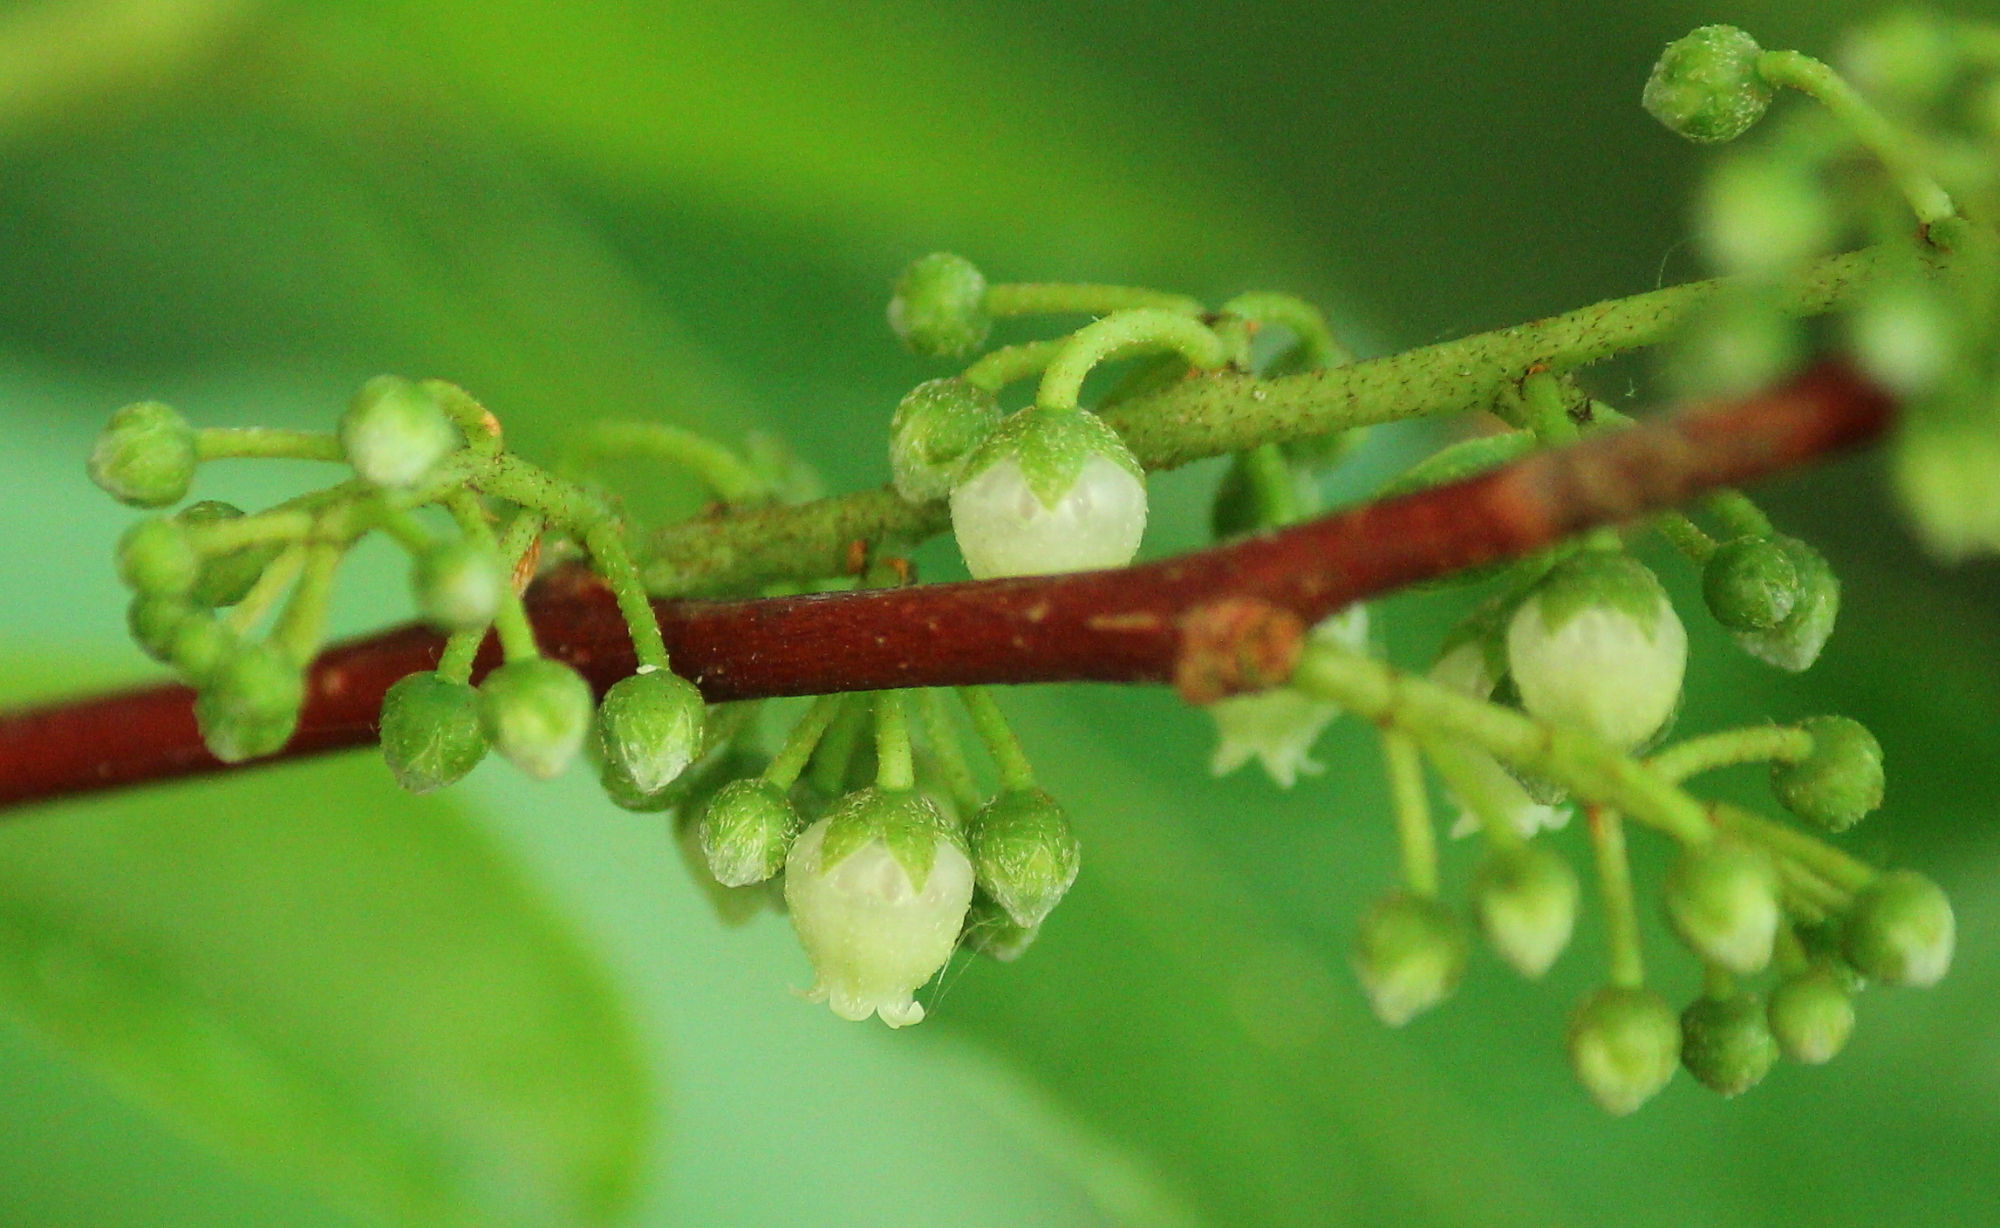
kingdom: Plantae
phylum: Tracheophyta
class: Magnoliopsida
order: Ericales
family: Ericaceae
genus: Lyonia
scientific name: Lyonia ligustrina
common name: Maleberry
